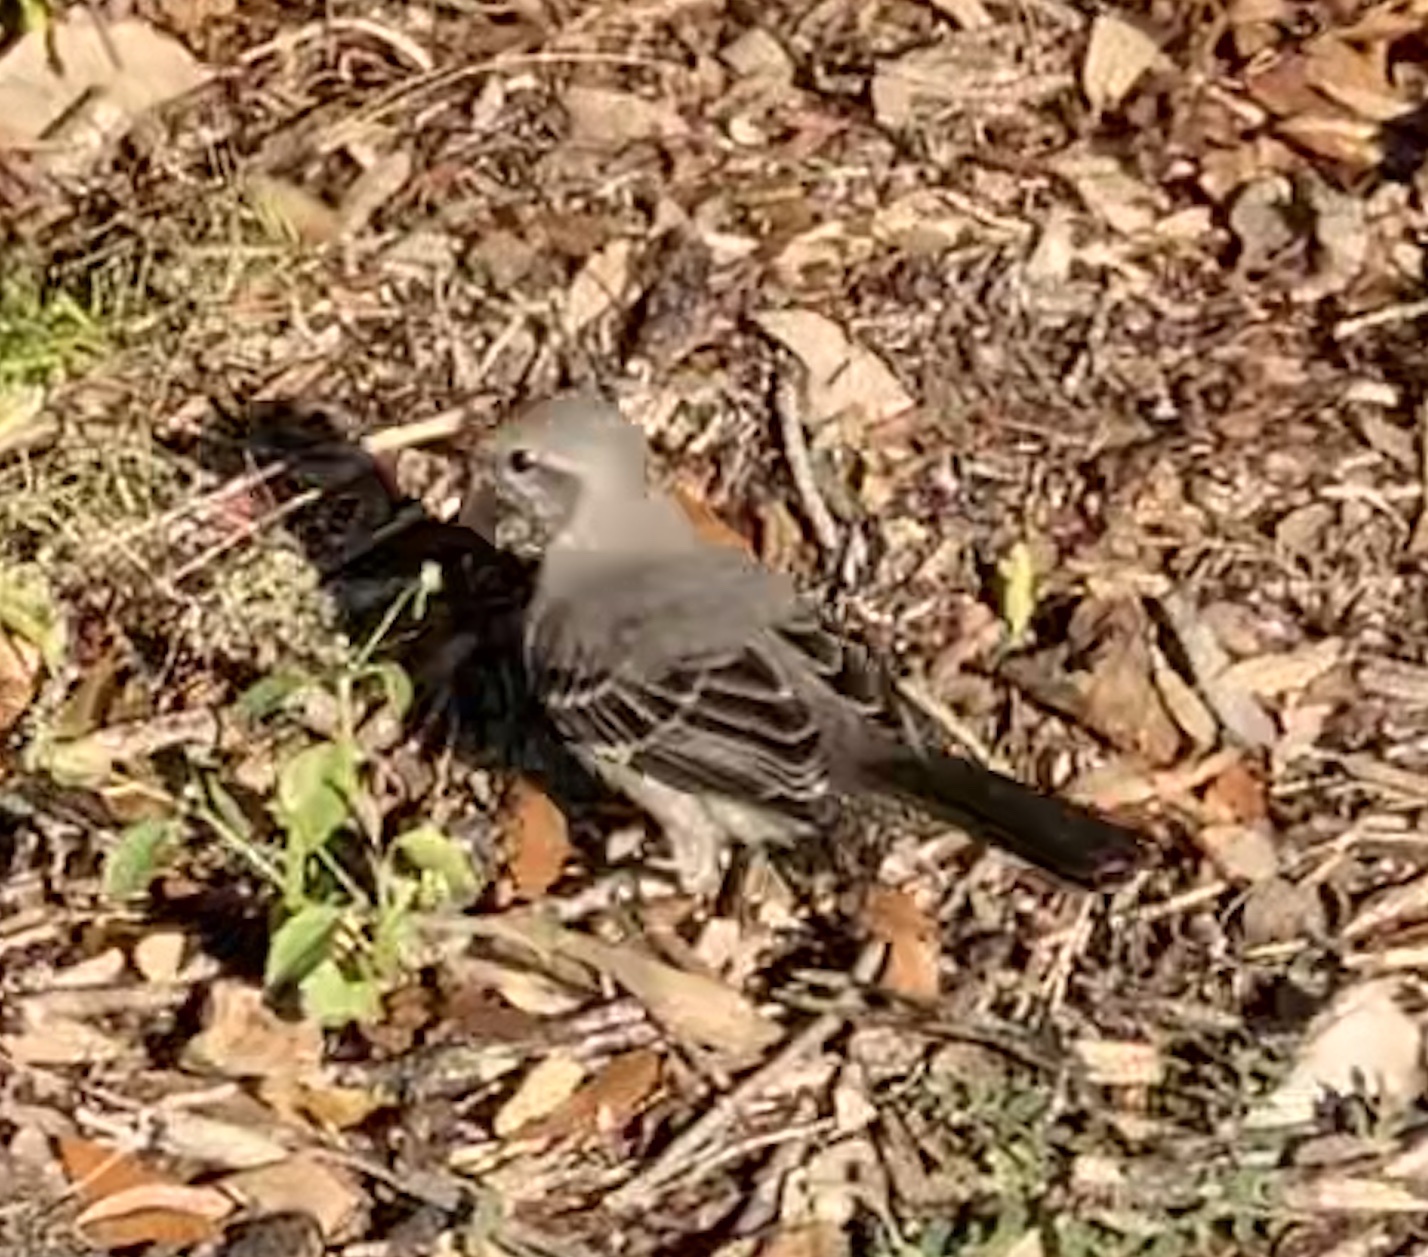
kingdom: Animalia
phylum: Chordata
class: Aves
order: Passeriformes
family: Mimidae
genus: Mimus
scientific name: Mimus polyglottos
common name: Northern mockingbird
